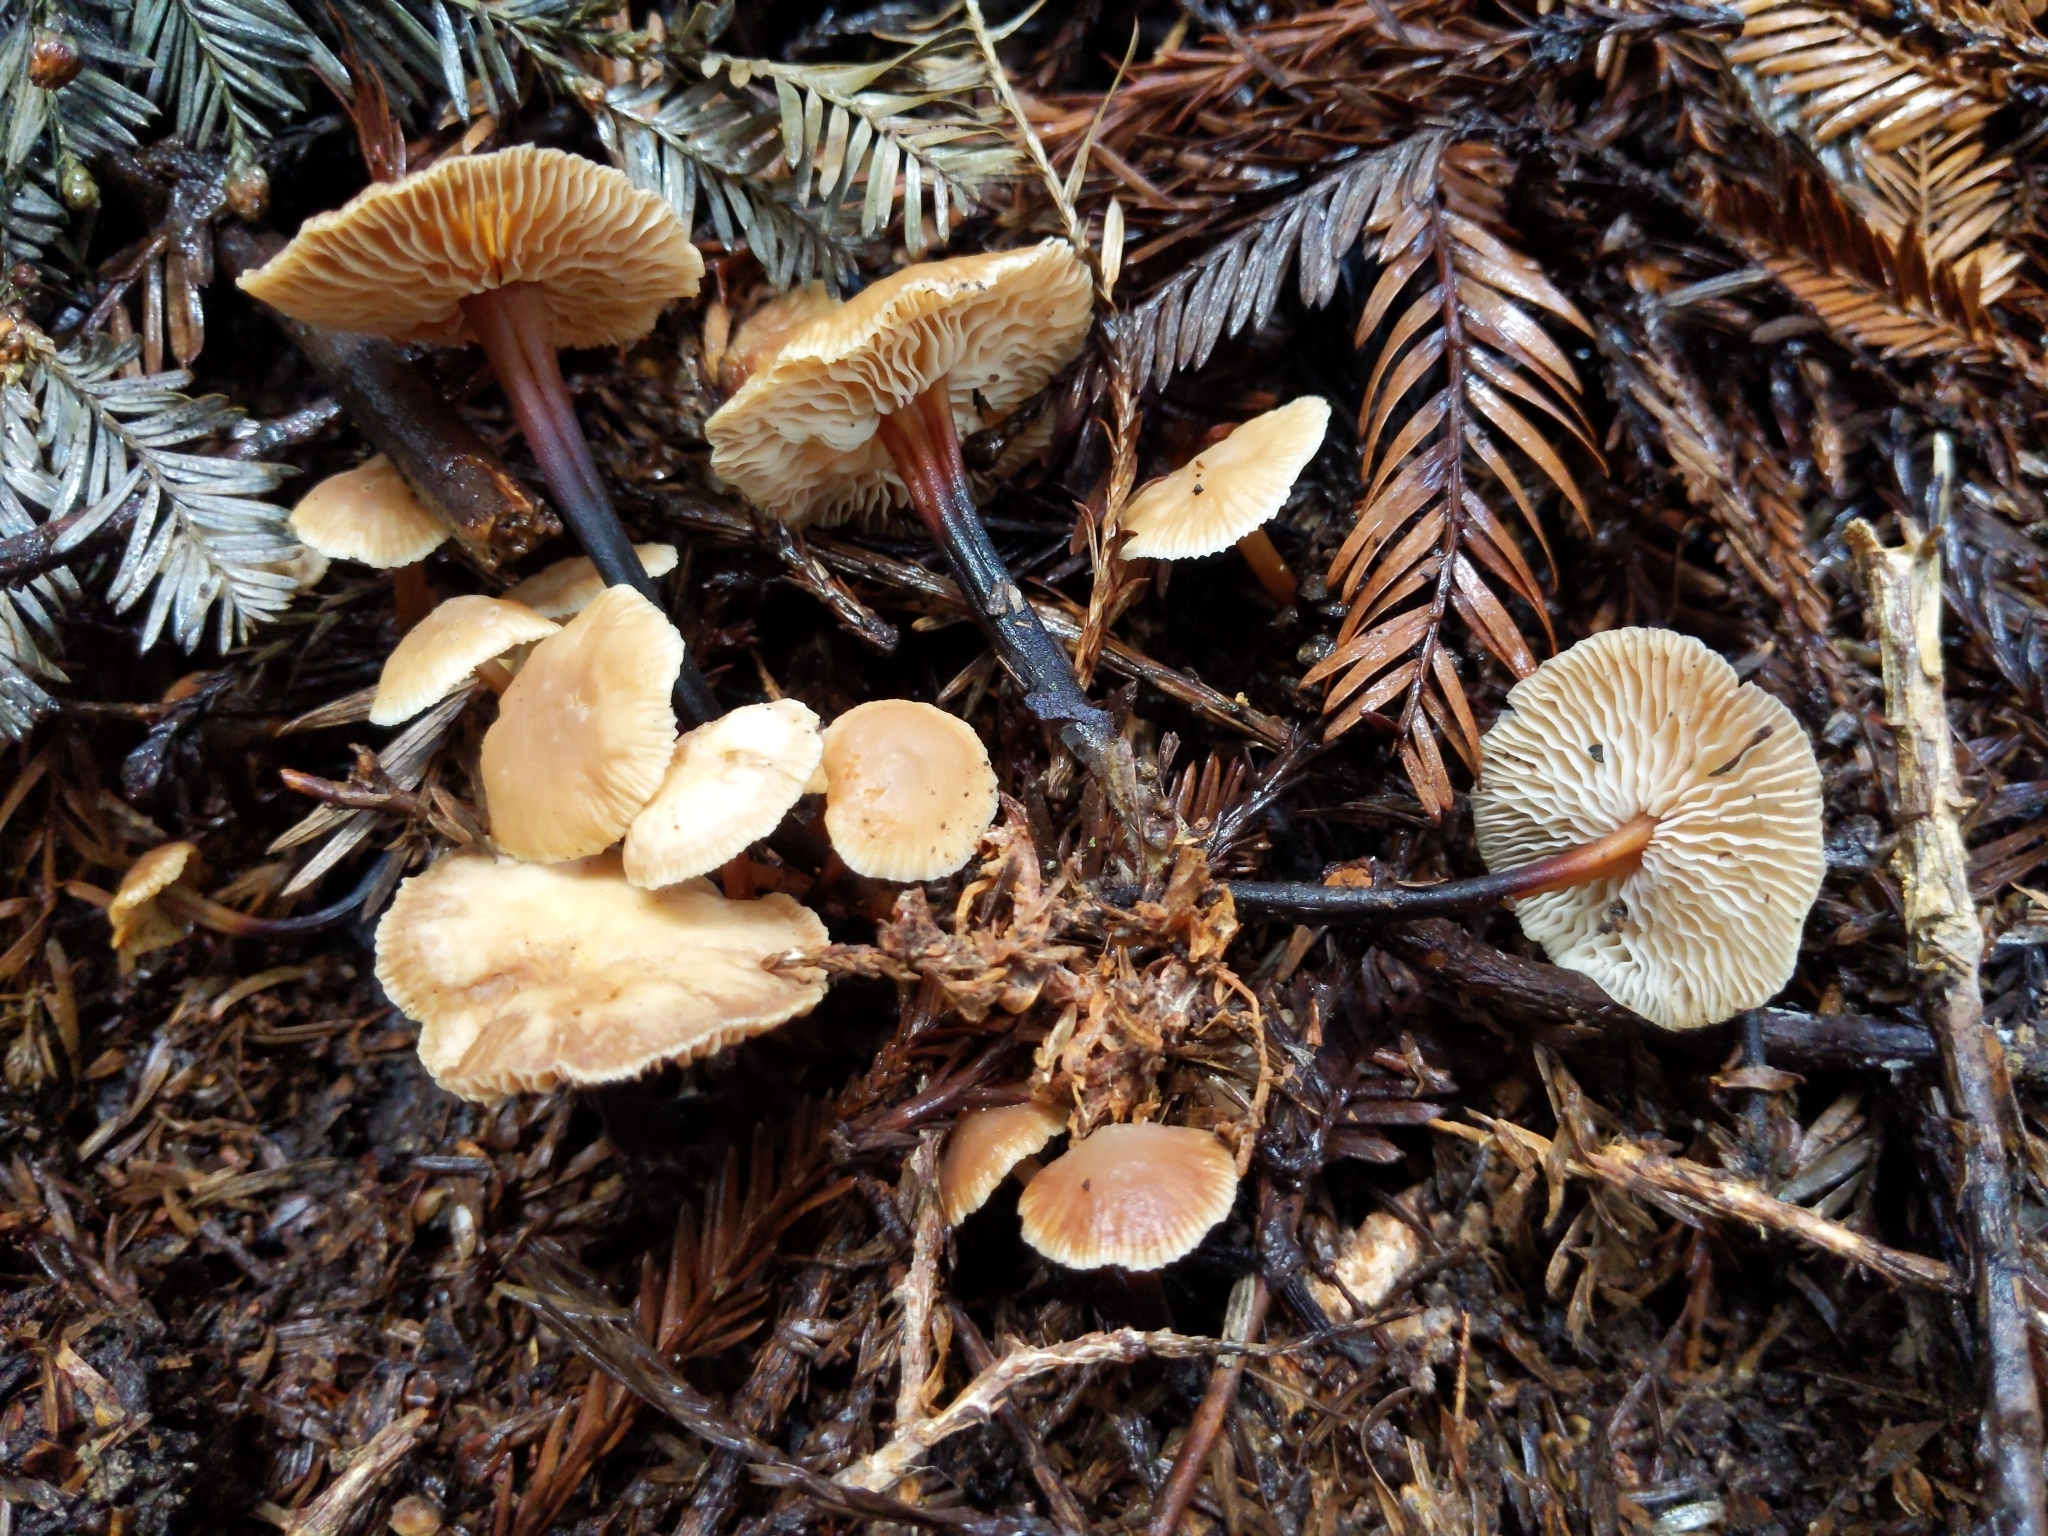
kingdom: Fungi
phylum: Basidiomycota
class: Agaricomycetes
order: Agaricales
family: Omphalotaceae
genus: Gymnopus
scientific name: Gymnopus brassicolens
